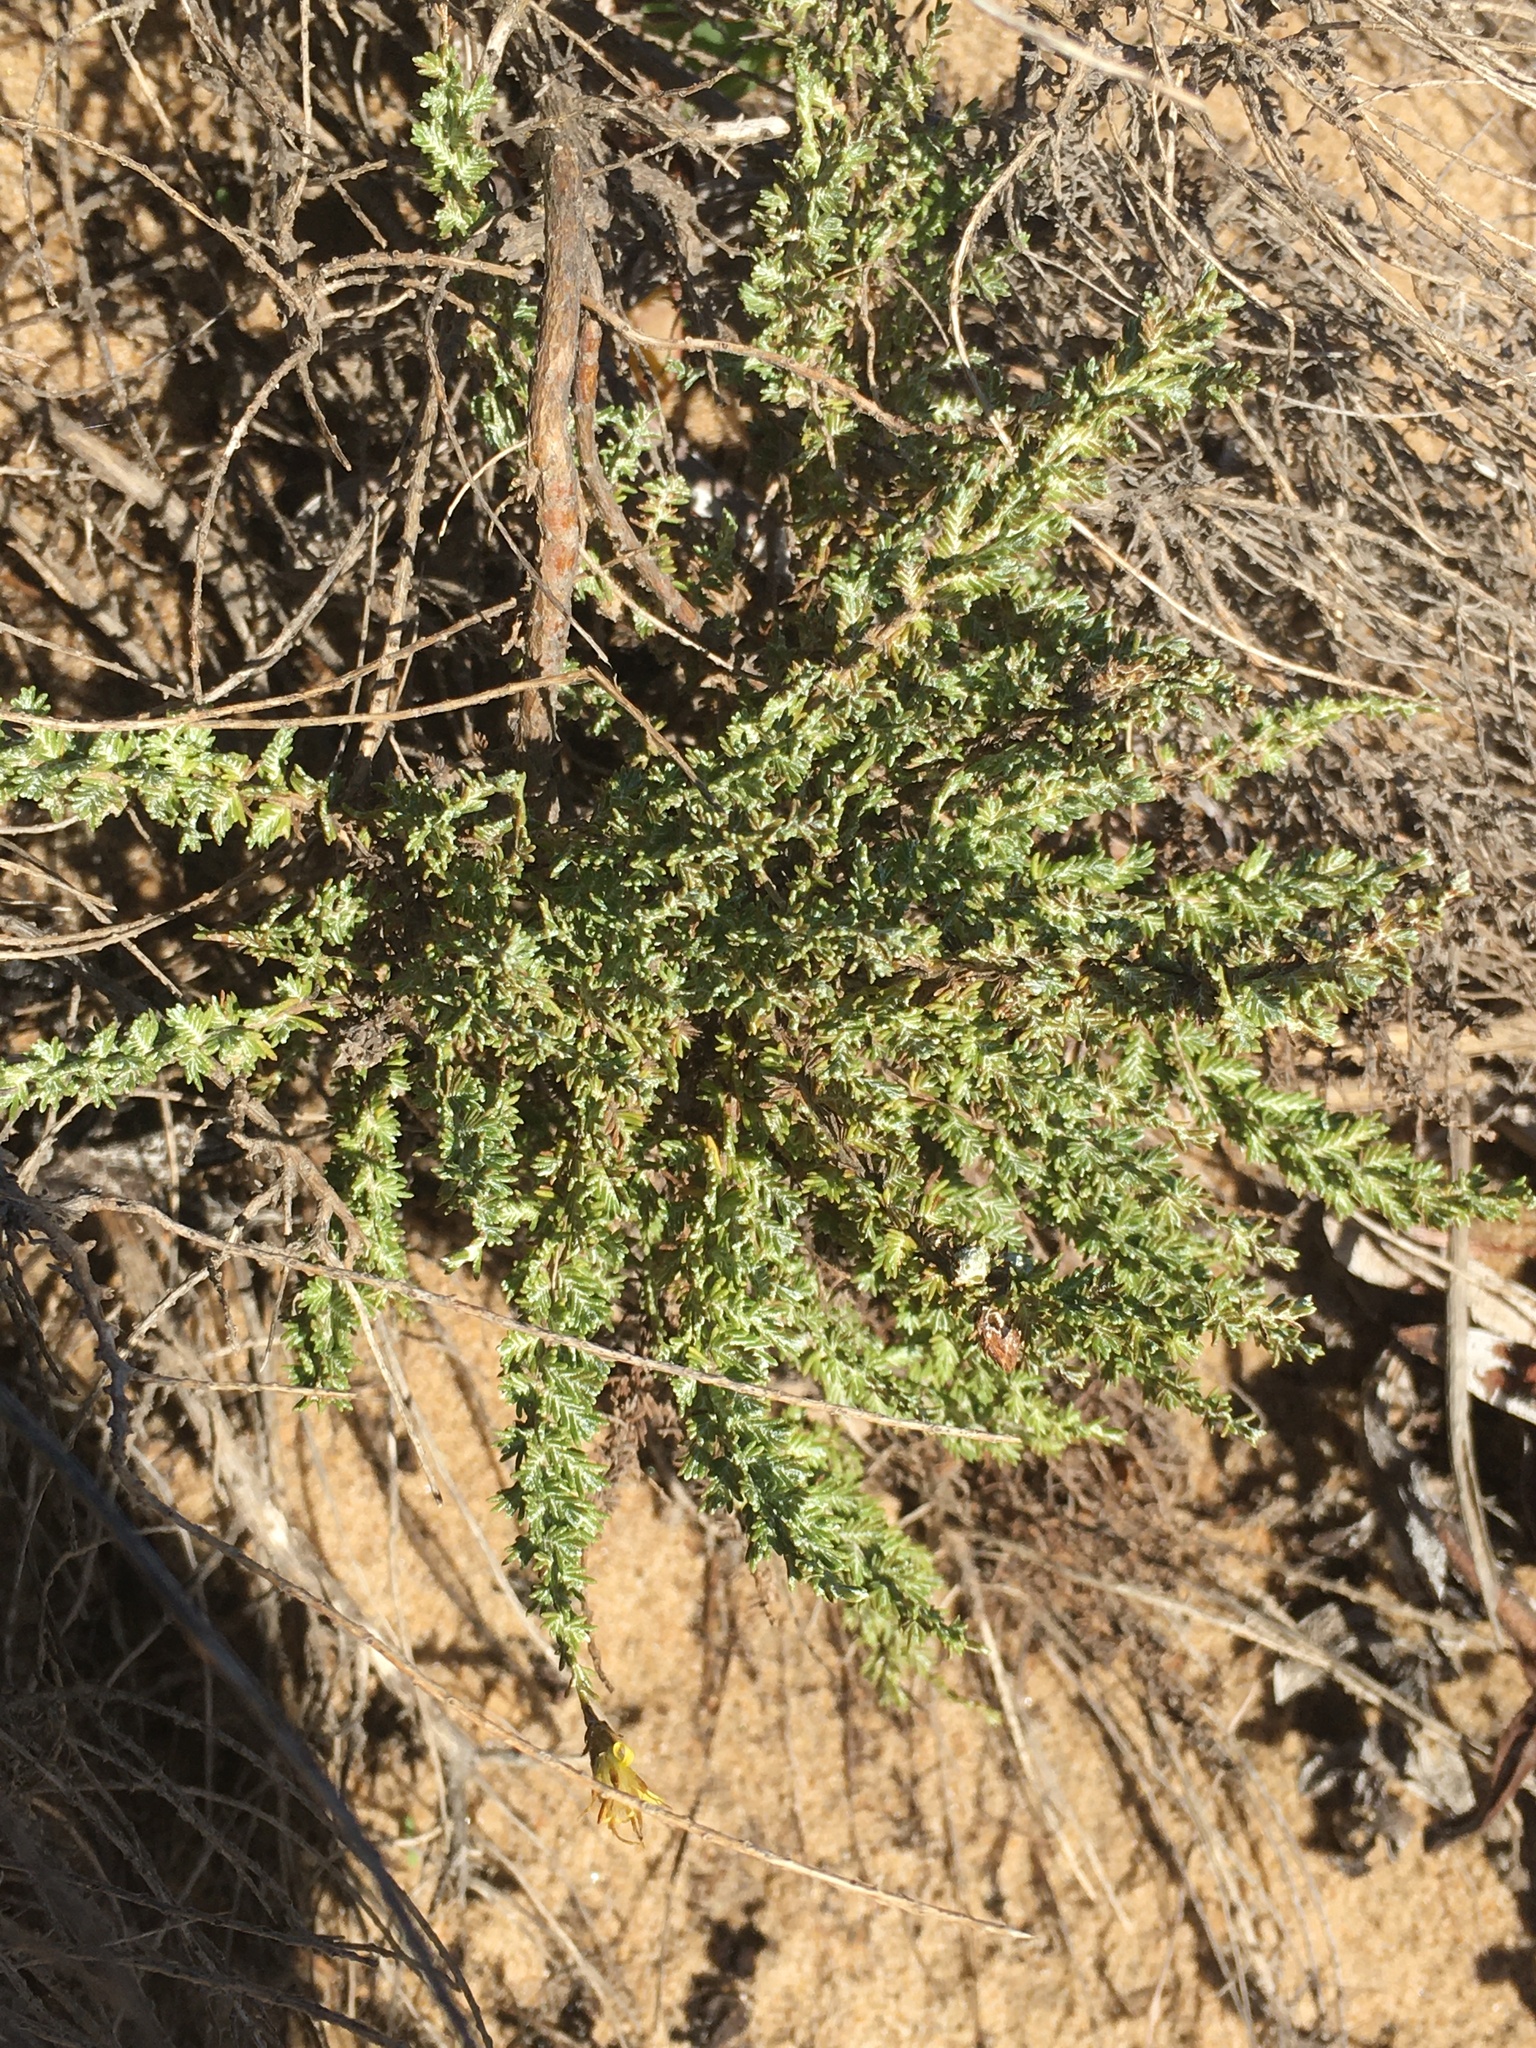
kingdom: Plantae
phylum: Tracheophyta
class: Magnoliopsida
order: Asterales
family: Asteraceae
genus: Ericameria
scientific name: Ericameria ericoides
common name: California goldenbush
